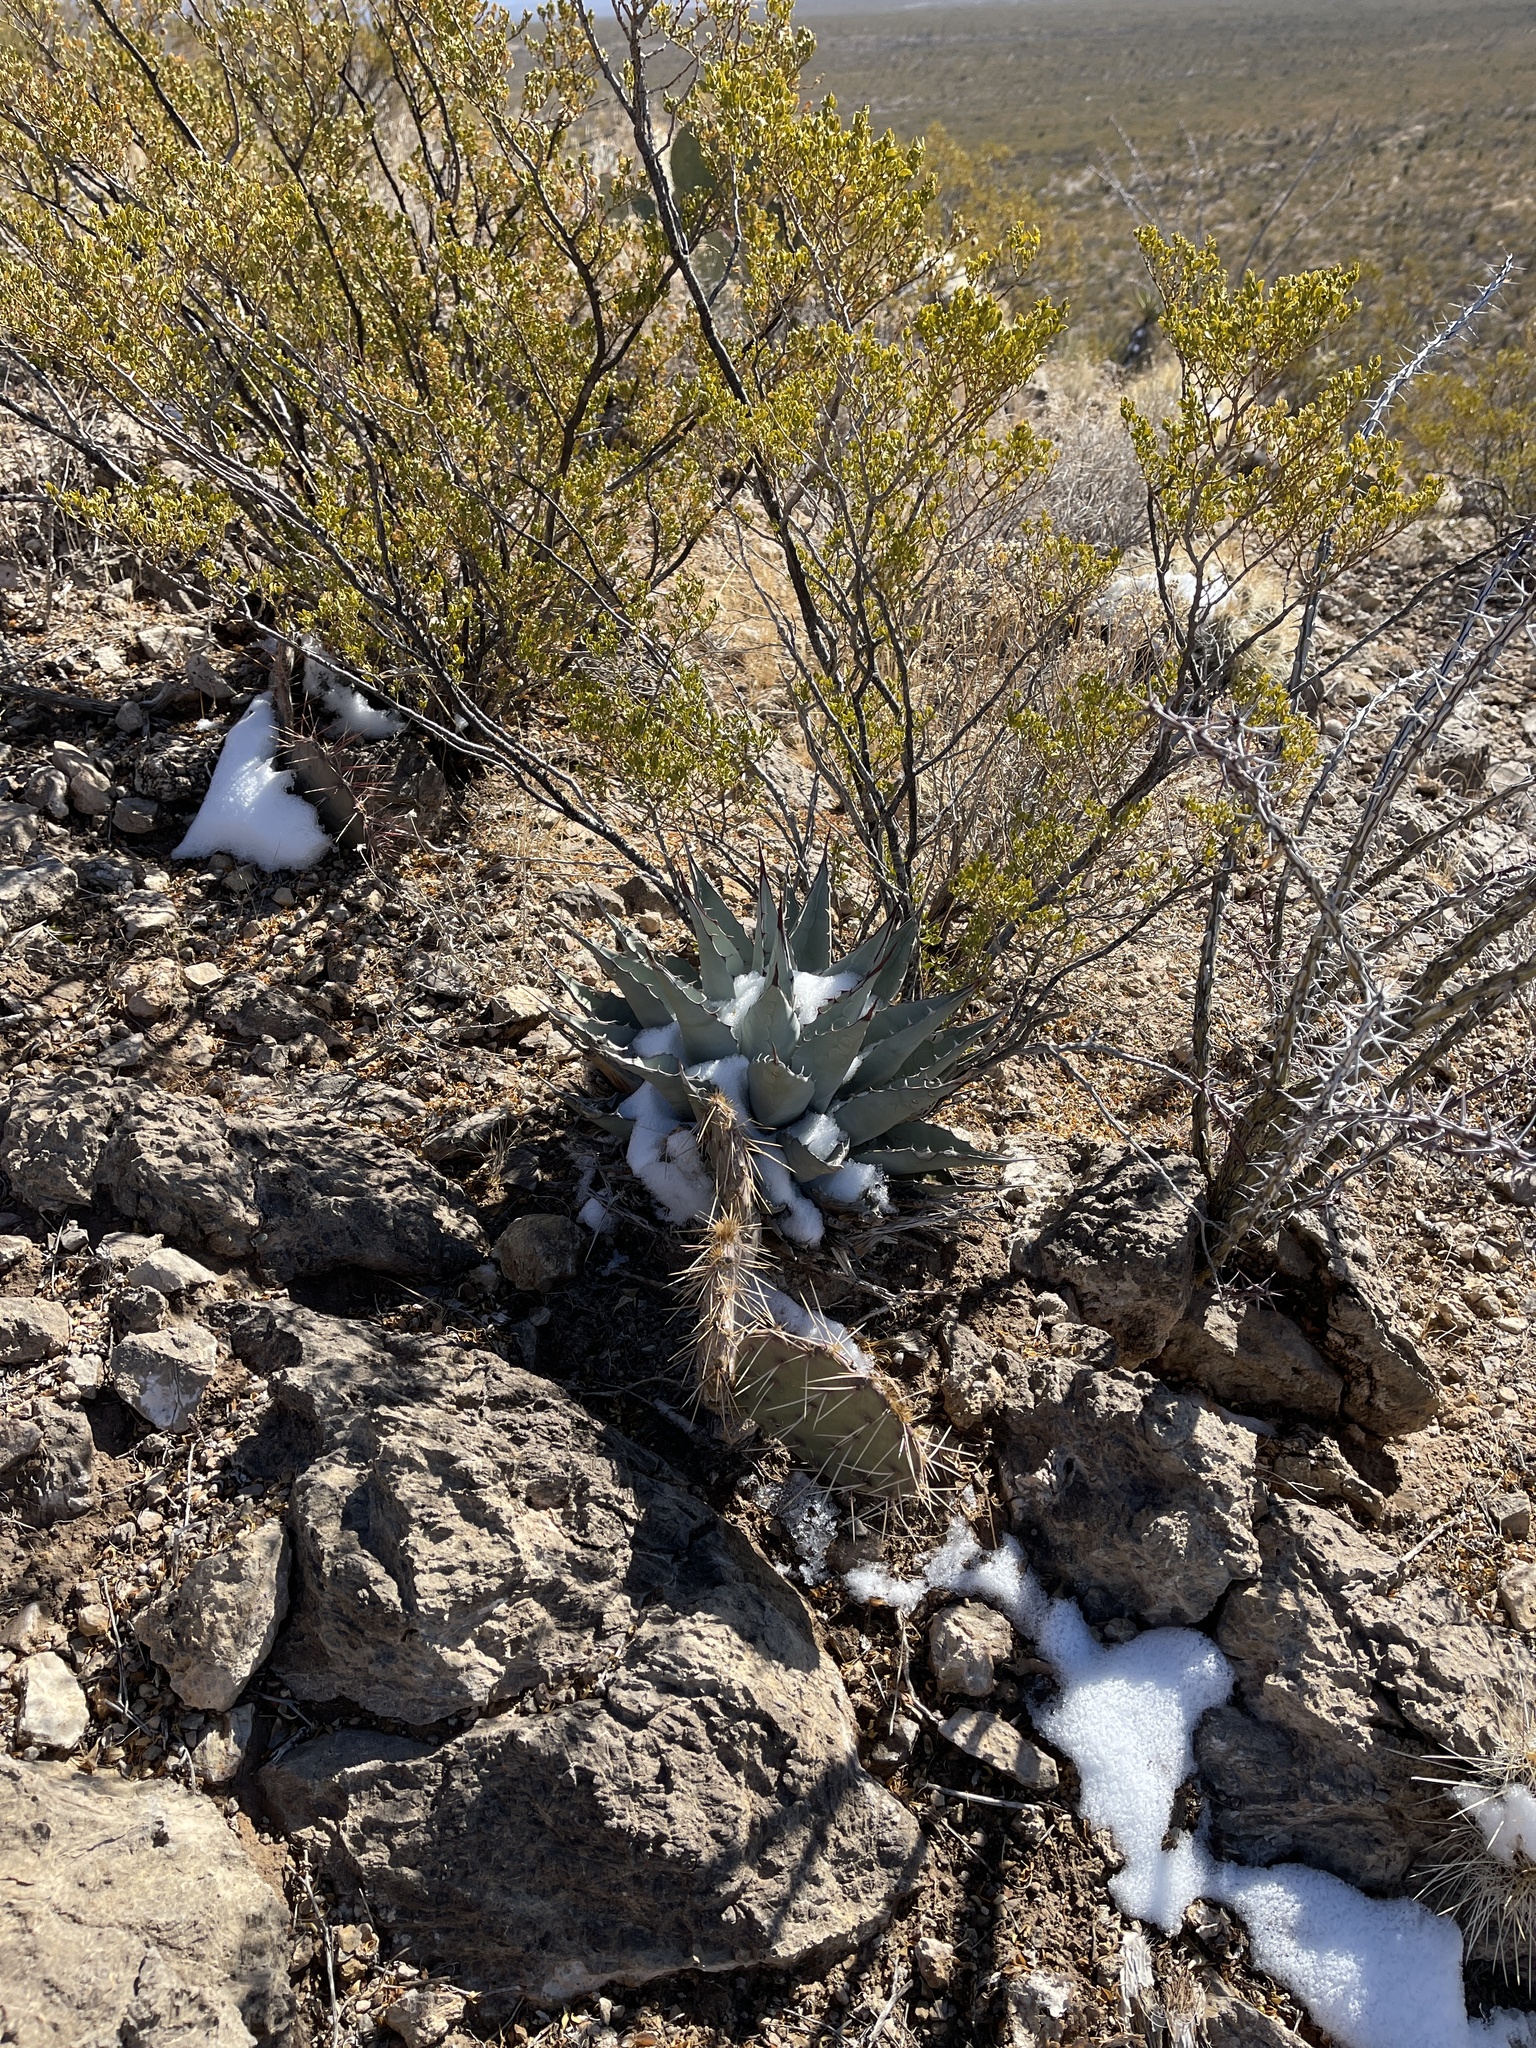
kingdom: Plantae
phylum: Tracheophyta
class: Liliopsida
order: Asparagales
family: Asparagaceae
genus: Agave
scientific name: Agave parryi
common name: Parry's agave
